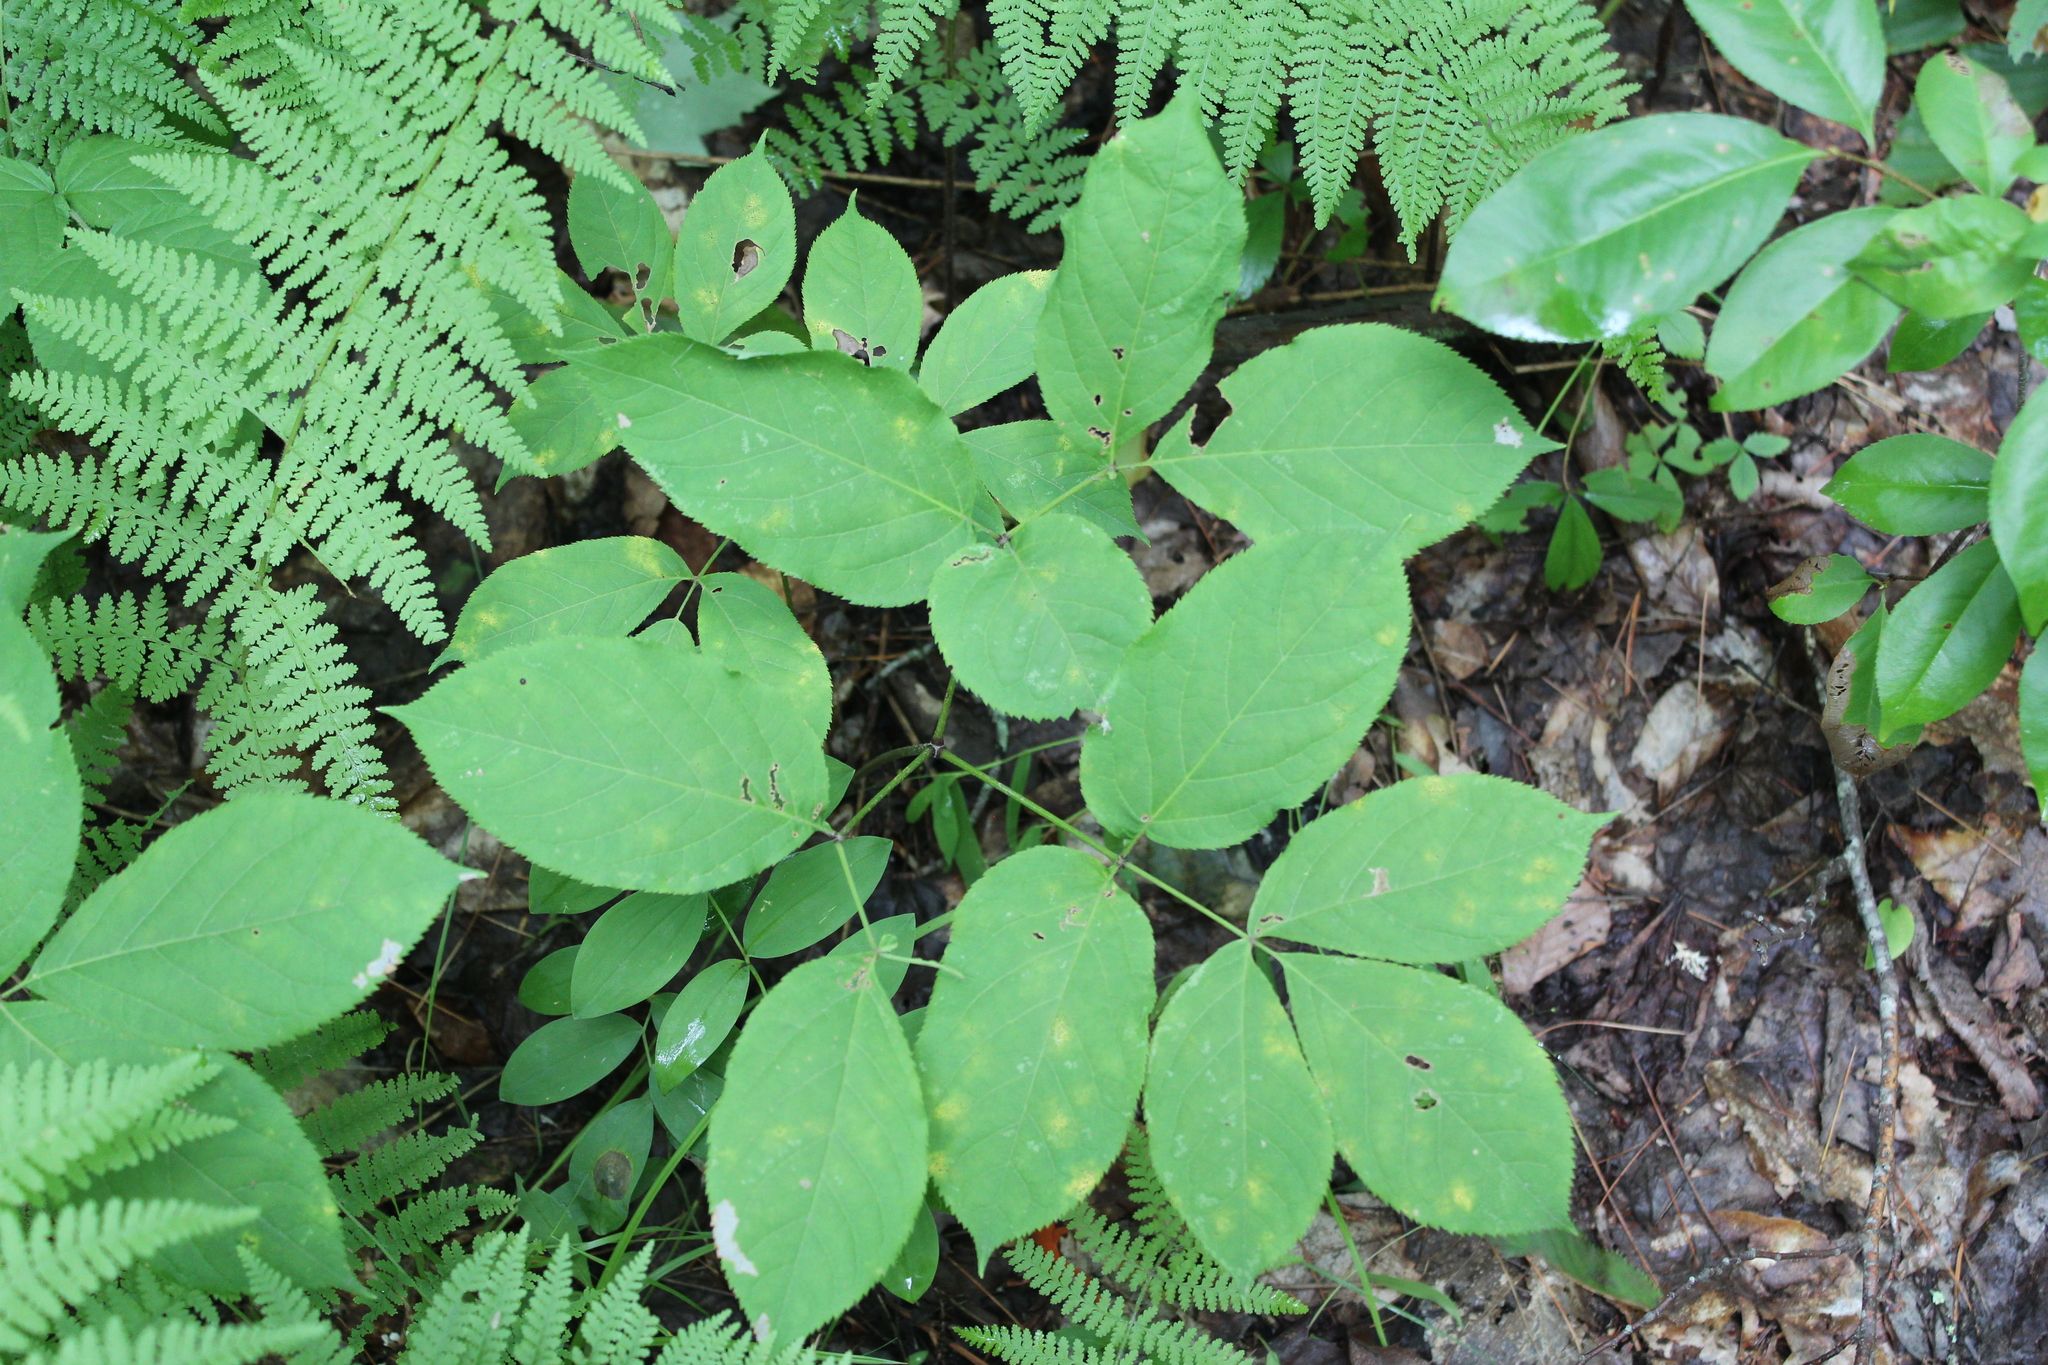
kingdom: Plantae
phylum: Tracheophyta
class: Magnoliopsida
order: Apiales
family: Araliaceae
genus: Aralia
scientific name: Aralia nudicaulis
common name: Wild sarsaparilla
